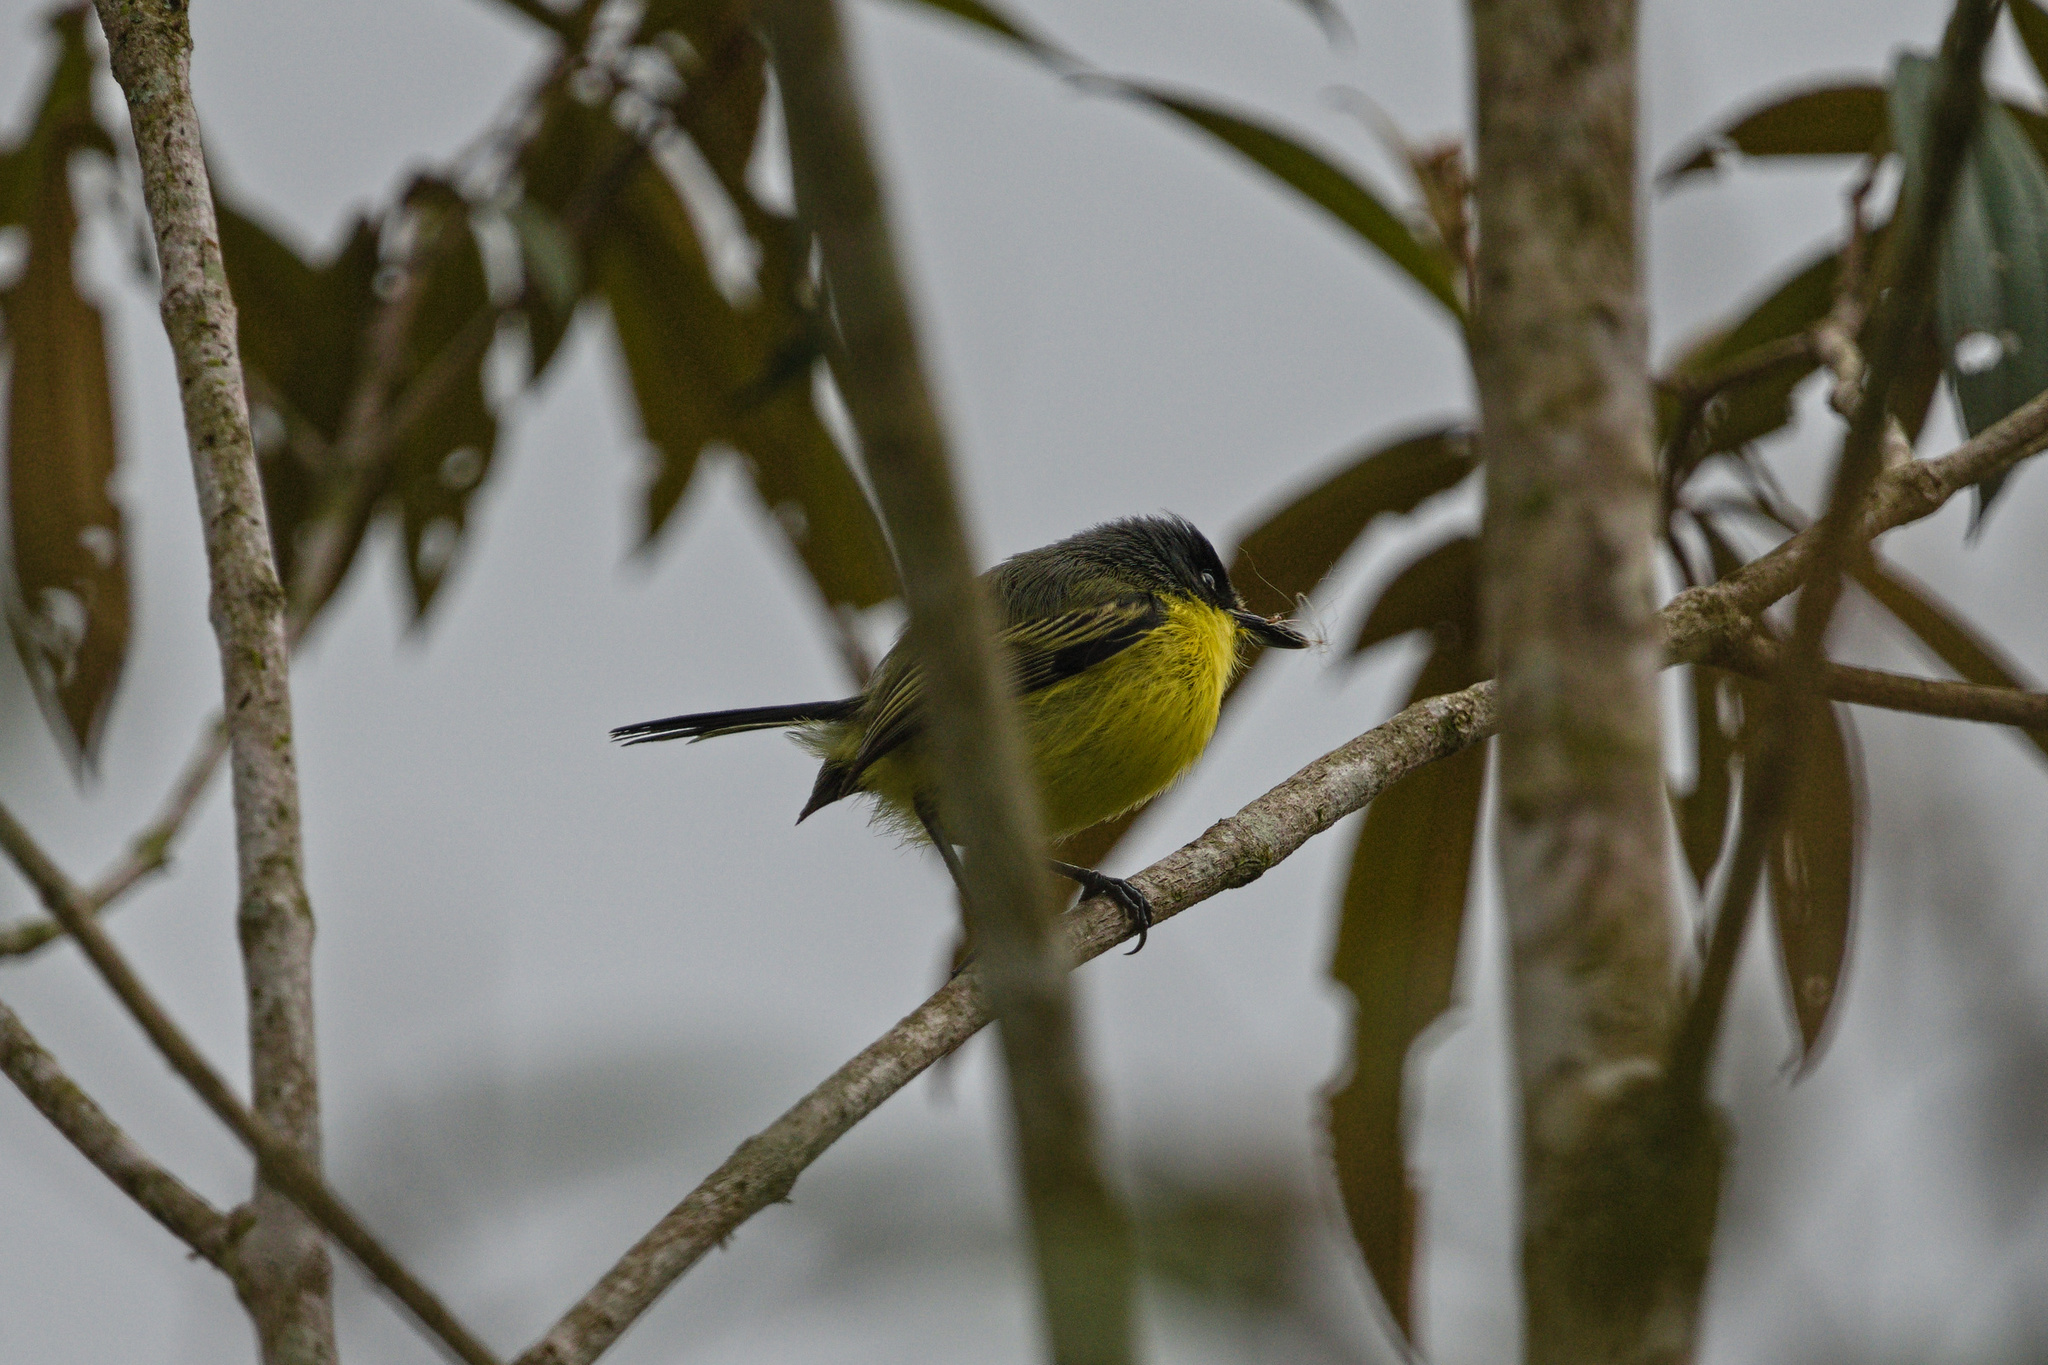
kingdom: Animalia
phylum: Chordata
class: Aves
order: Passeriformes
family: Tyrannidae
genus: Todirostrum
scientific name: Todirostrum cinereum
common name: Common tody-flycatcher
